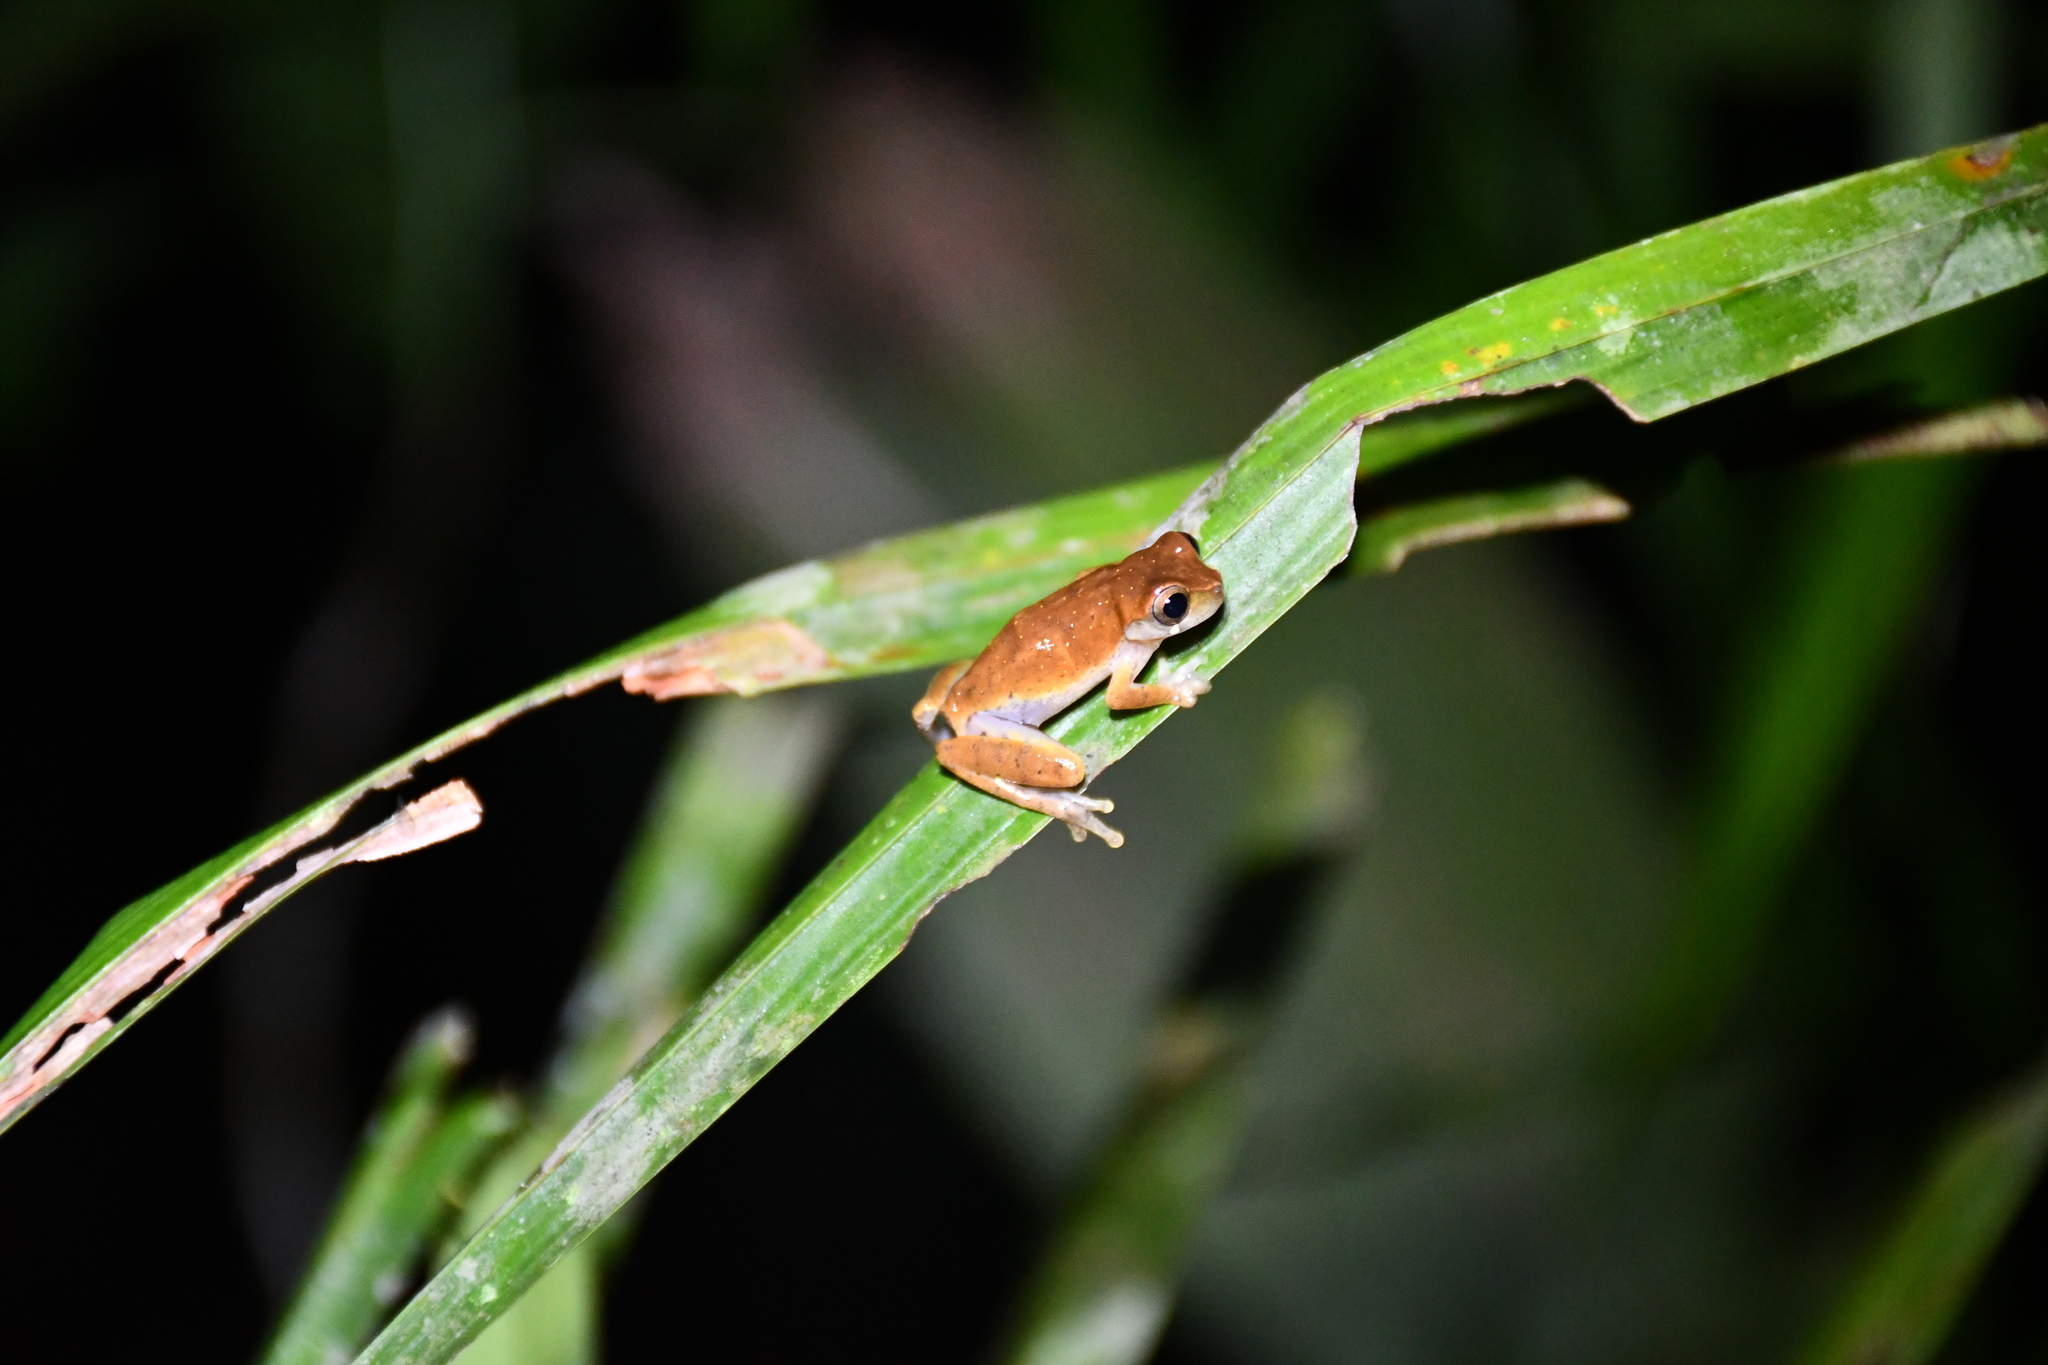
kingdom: Animalia
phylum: Chordata
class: Amphibia
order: Anura
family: Hylidae
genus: Dendropsophus
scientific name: Dendropsophus pauiniensis
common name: Pauini treefrog
